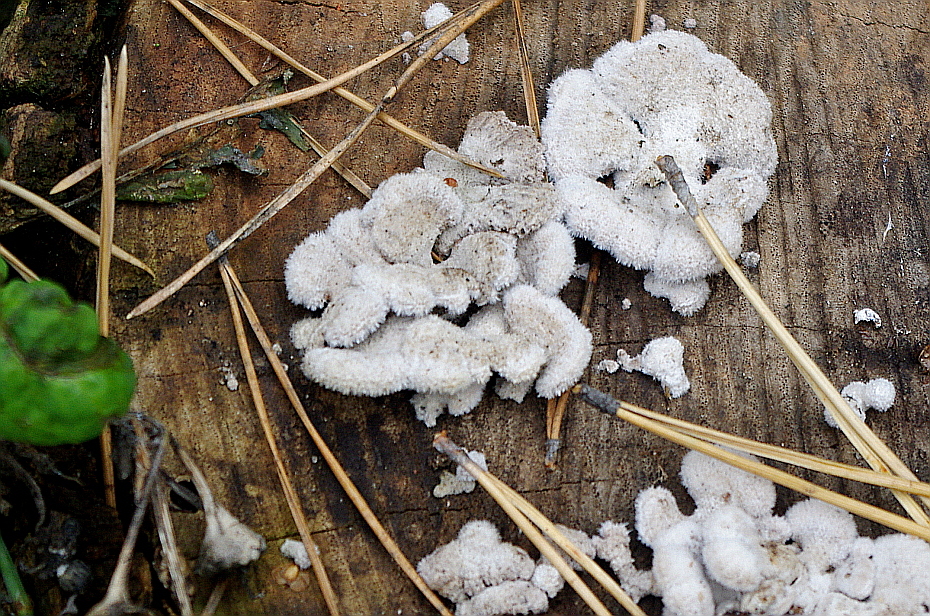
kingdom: Fungi
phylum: Basidiomycota
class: Agaricomycetes
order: Agaricales
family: Schizophyllaceae
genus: Schizophyllum
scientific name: Schizophyllum commune
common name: Common porecrust
